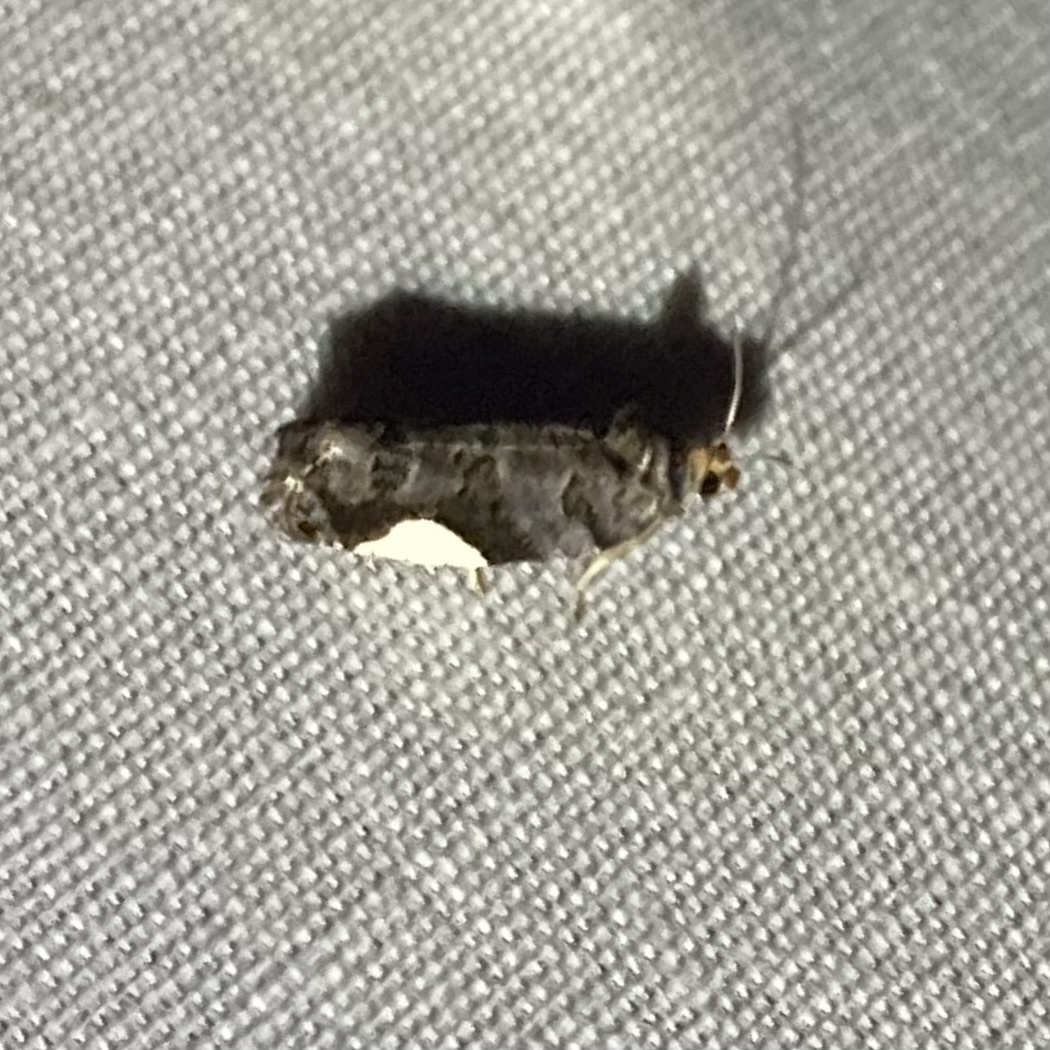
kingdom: Animalia
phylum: Arthropoda
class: Insecta
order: Lepidoptera
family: Tortricidae
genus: Hedya
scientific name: Hedya chionosema
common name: White-spotted hedya moth
